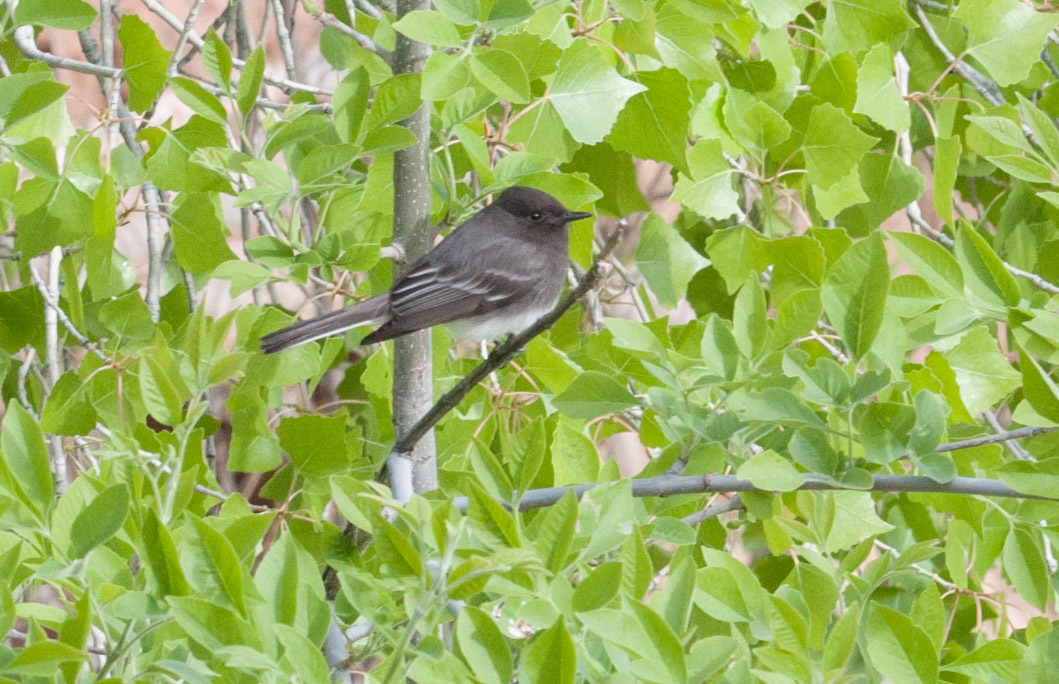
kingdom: Animalia
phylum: Chordata
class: Aves
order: Passeriformes
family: Tyrannidae
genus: Sayornis
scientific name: Sayornis nigricans
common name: Black phoebe
